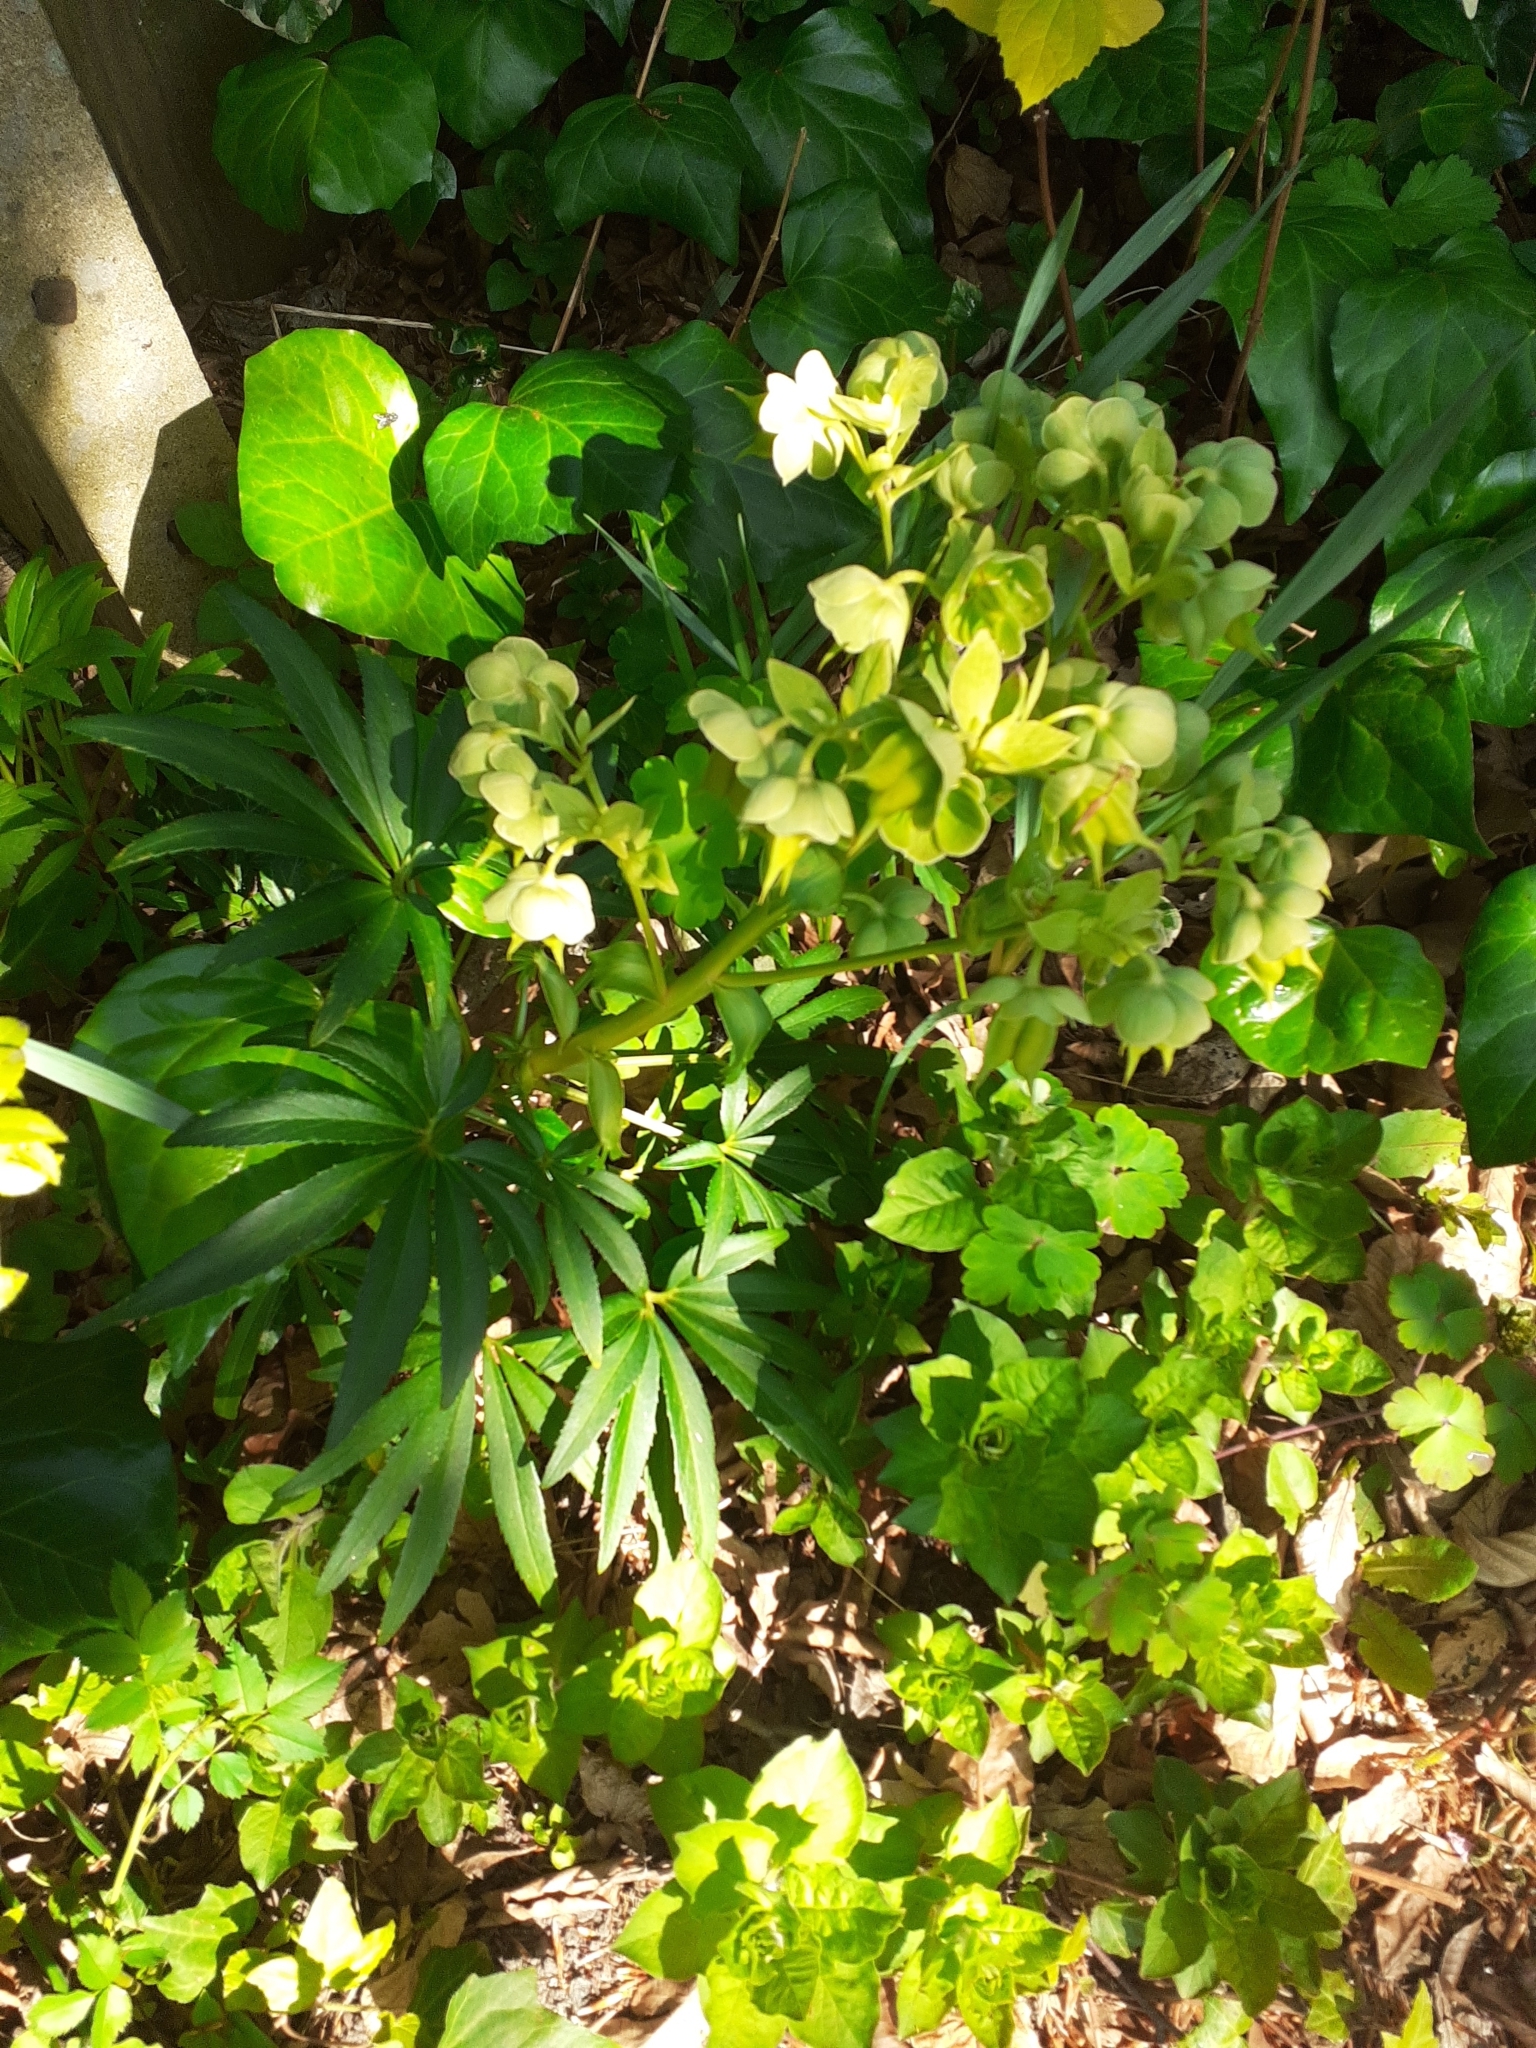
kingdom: Plantae
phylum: Tracheophyta
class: Magnoliopsida
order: Ranunculales
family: Ranunculaceae
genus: Helleborus
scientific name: Helleborus foetidus
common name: Stinking hellebore
